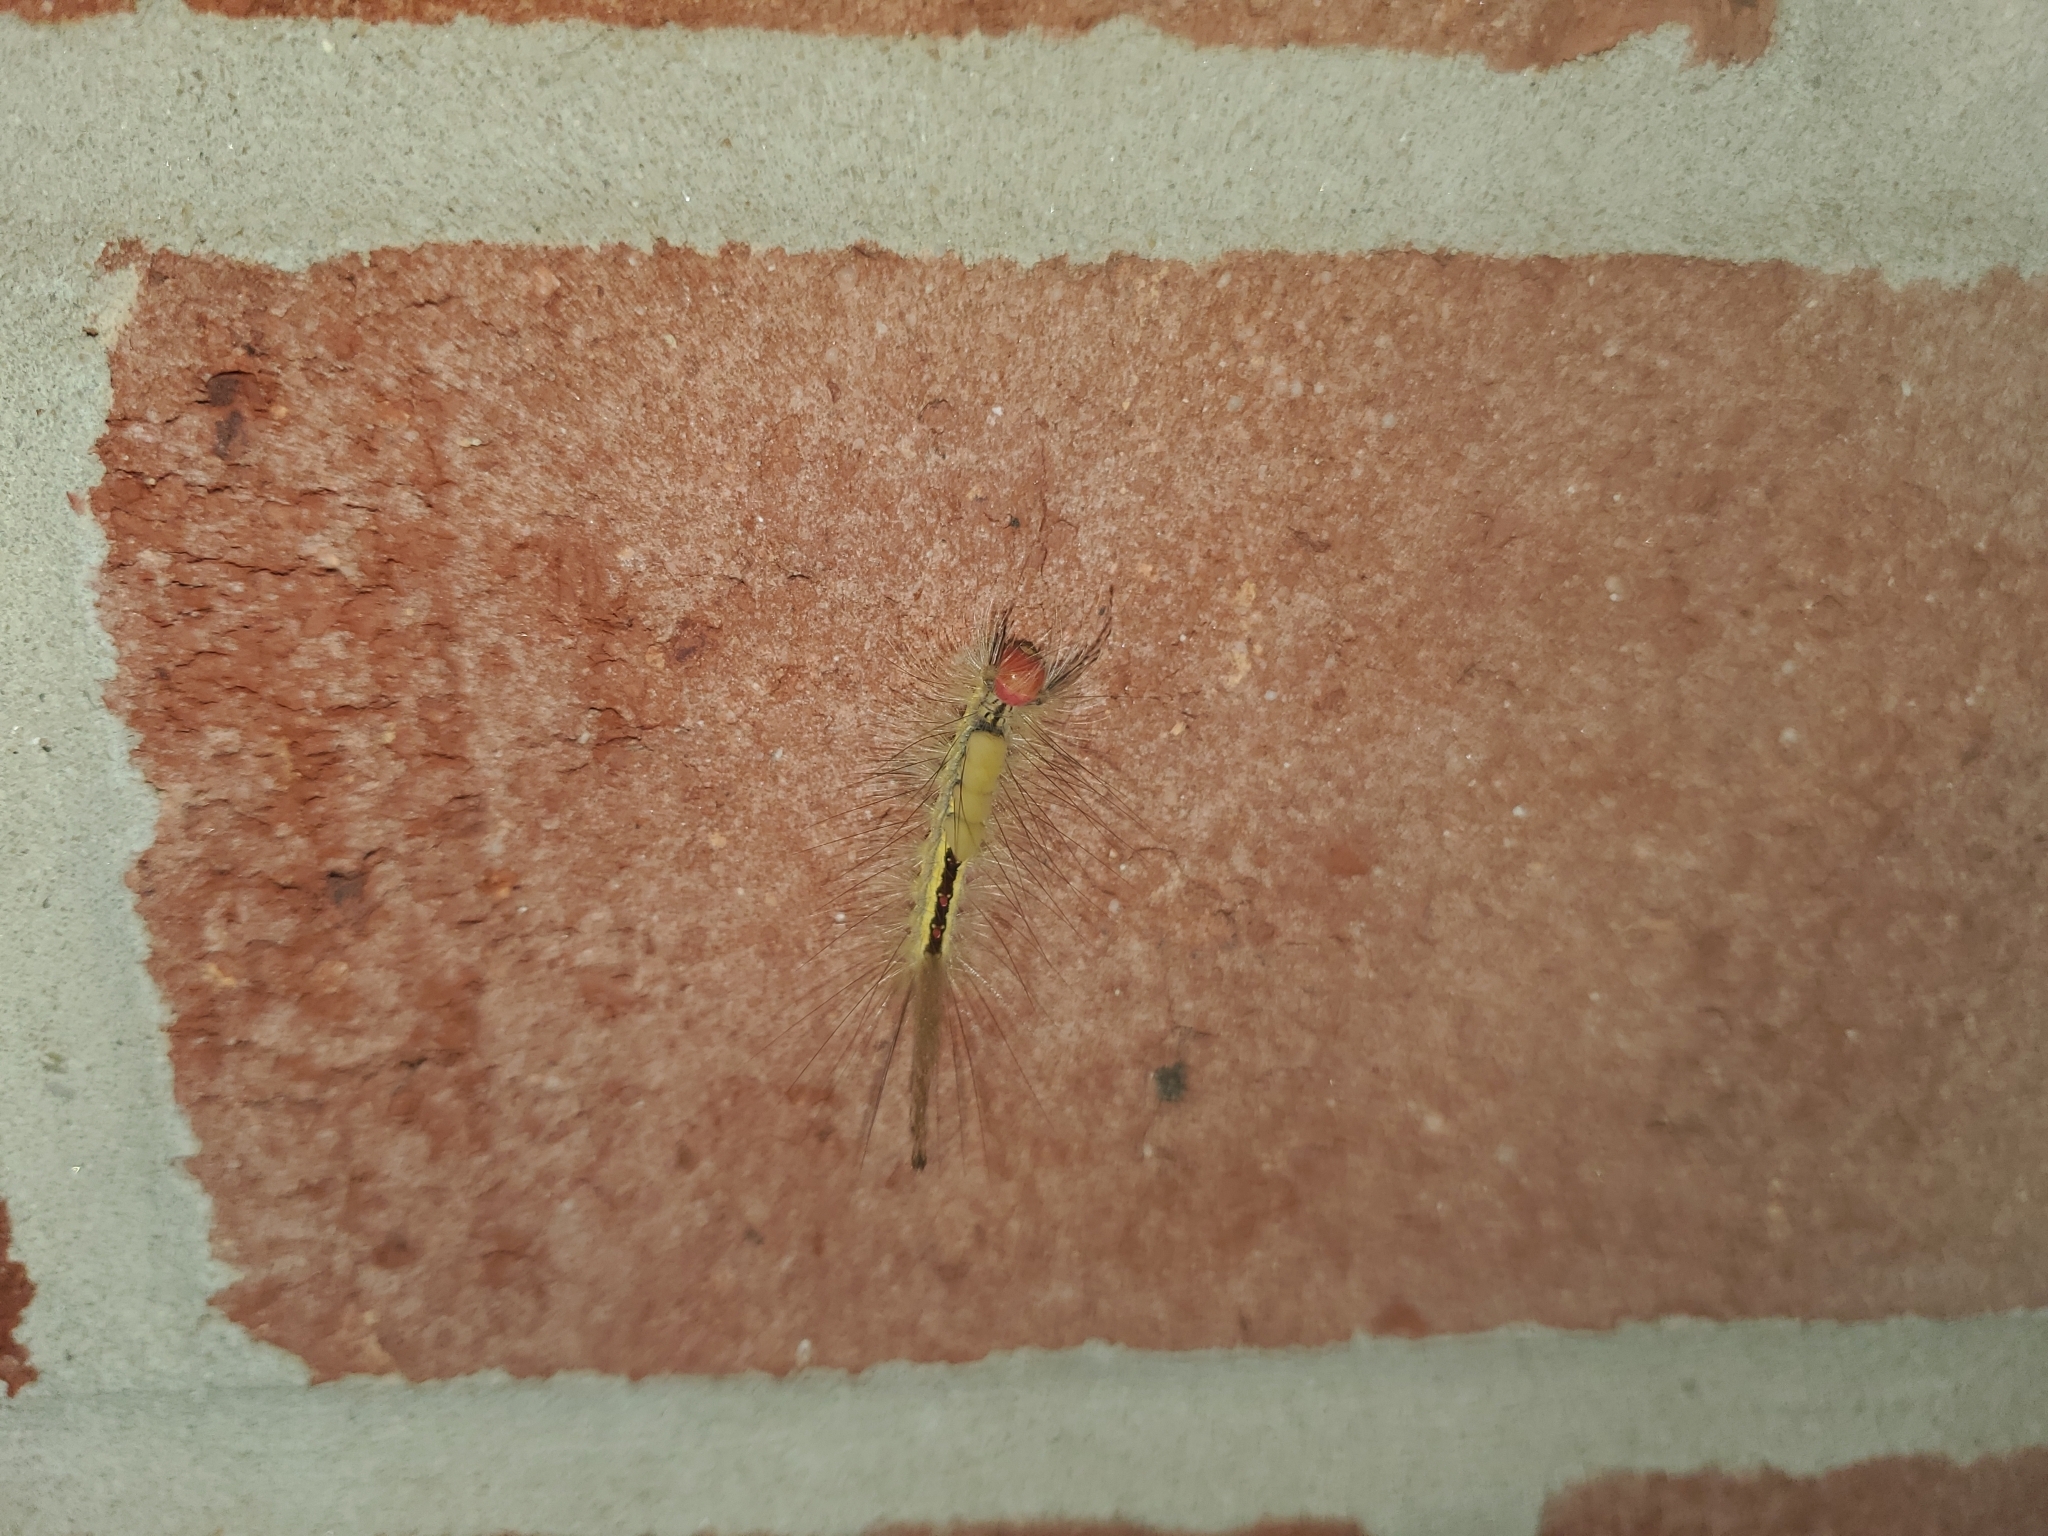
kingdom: Animalia
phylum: Arthropoda
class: Insecta
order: Lepidoptera
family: Erebidae
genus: Orgyia
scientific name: Orgyia leucostigma
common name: White-marked tussock moth
